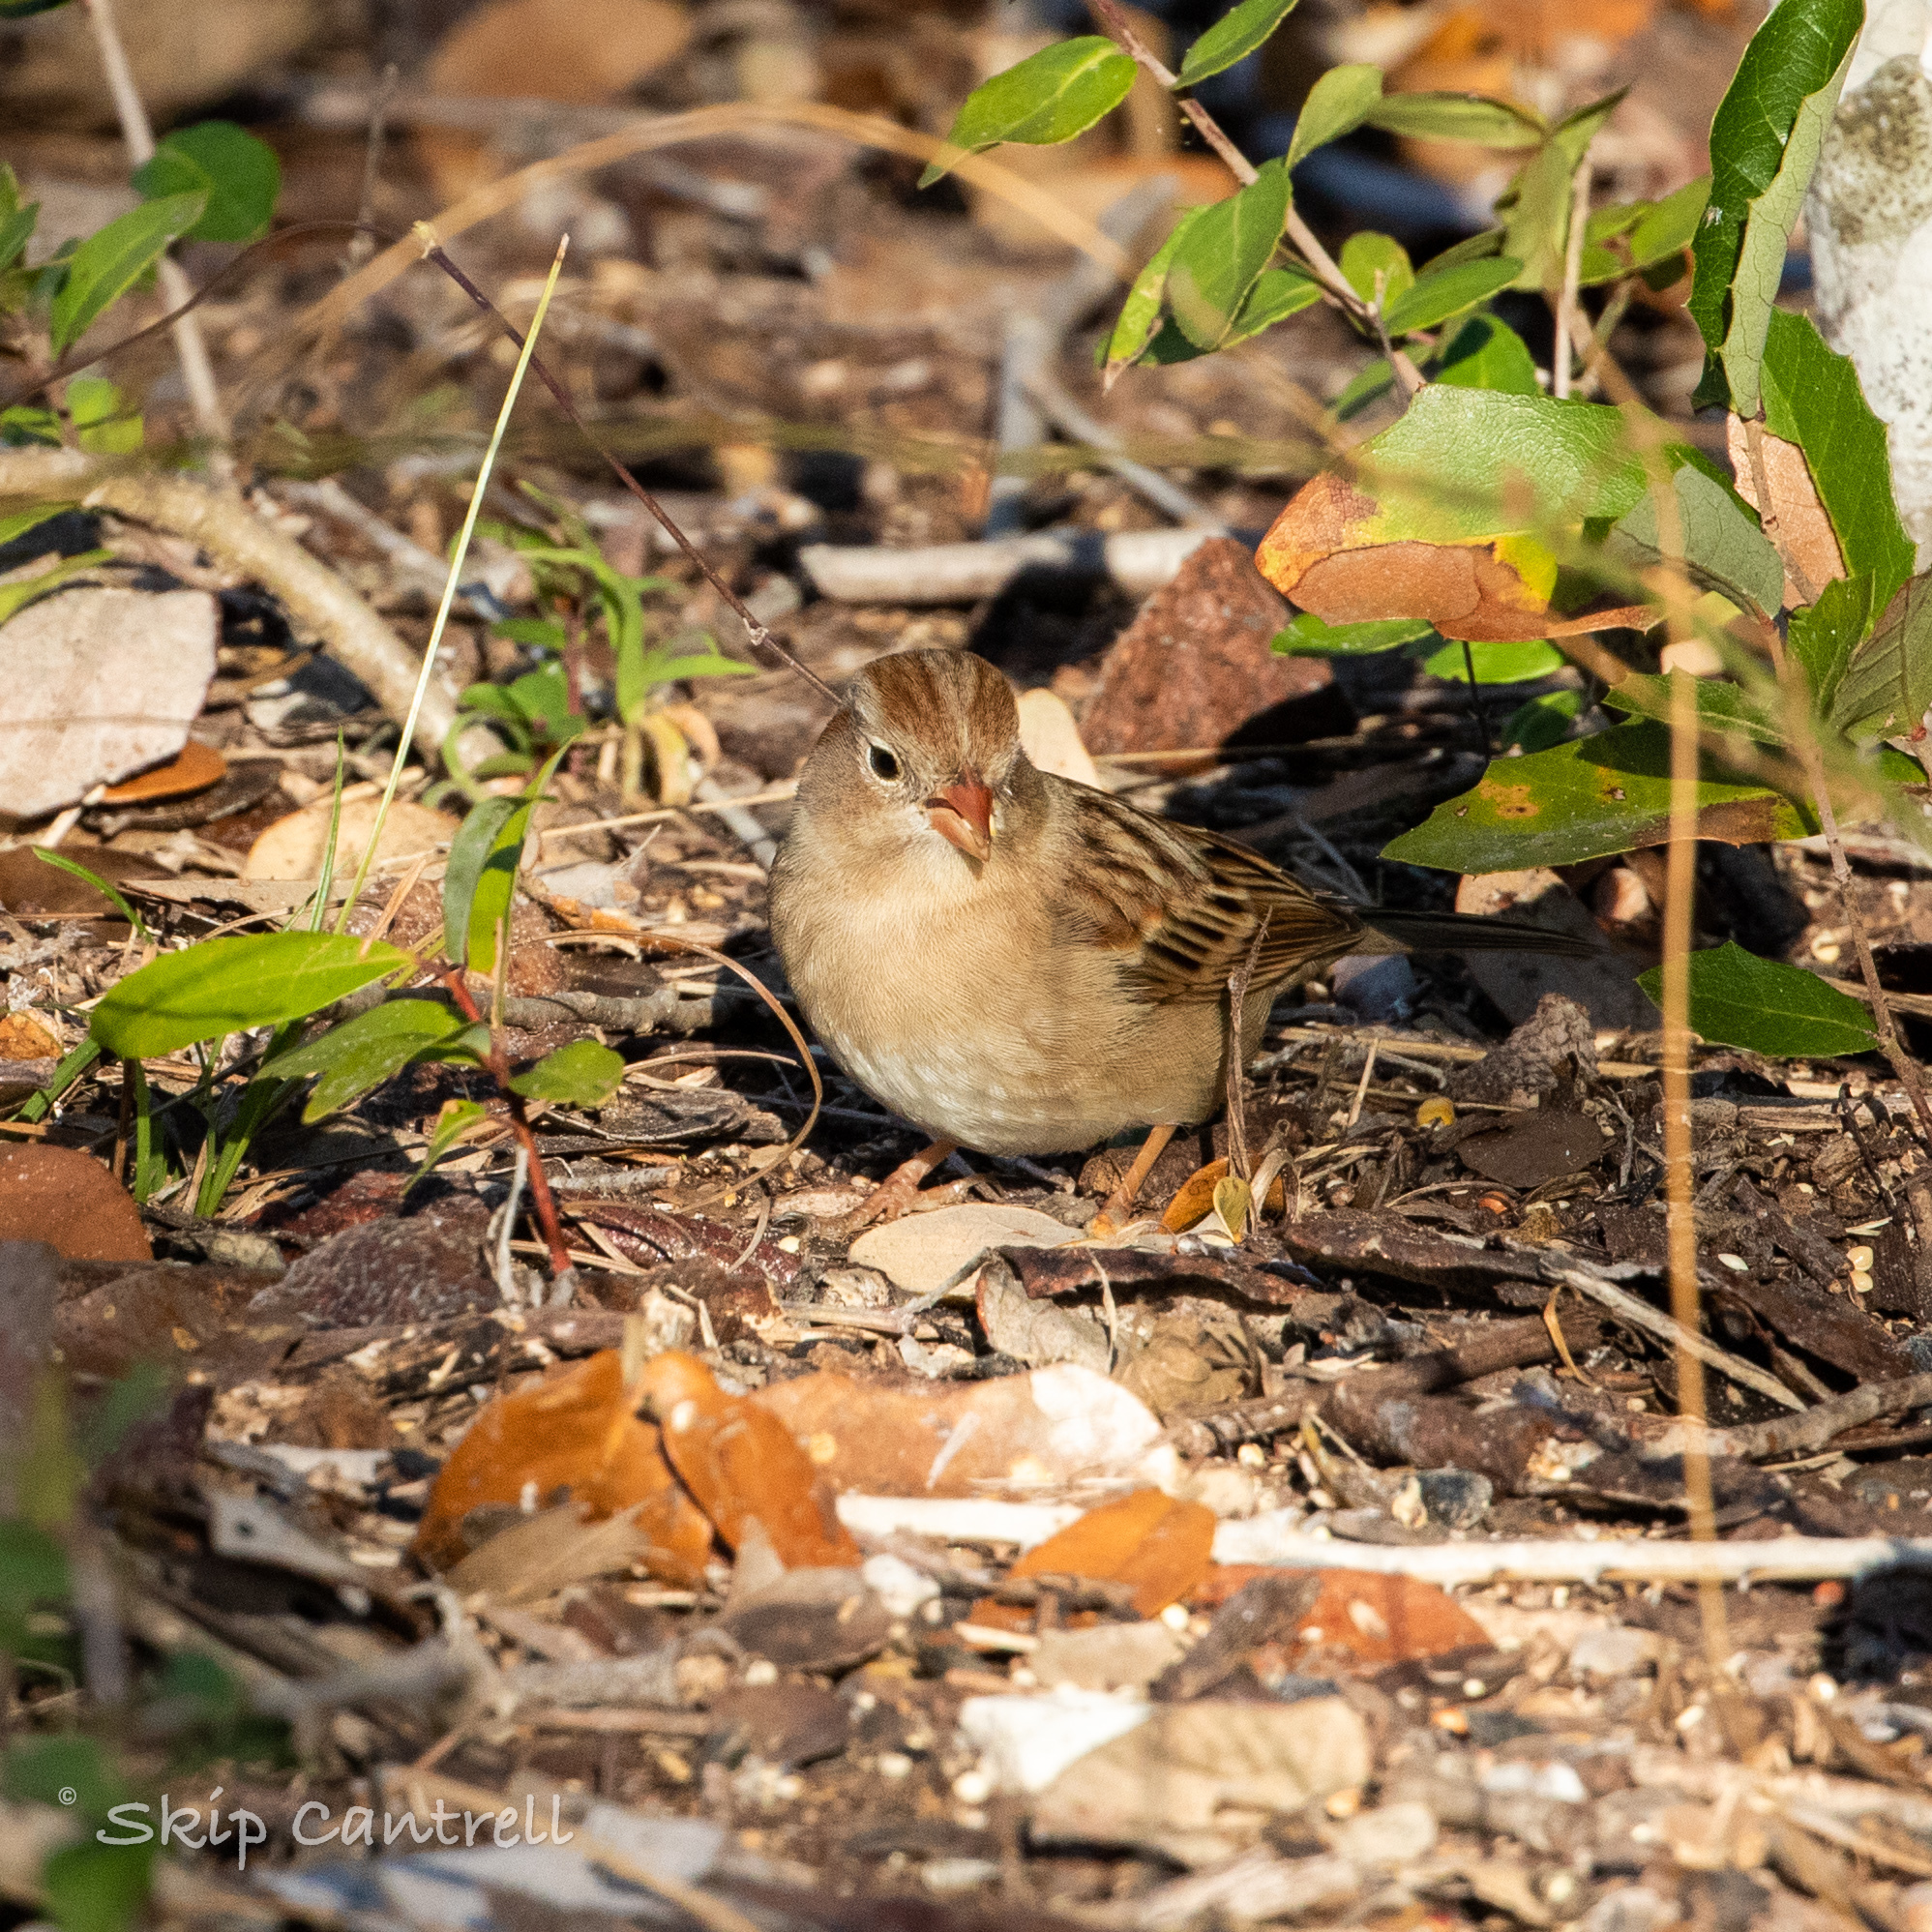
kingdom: Animalia
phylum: Chordata
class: Aves
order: Passeriformes
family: Passerellidae
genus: Spizella
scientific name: Spizella pusilla
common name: Field sparrow
